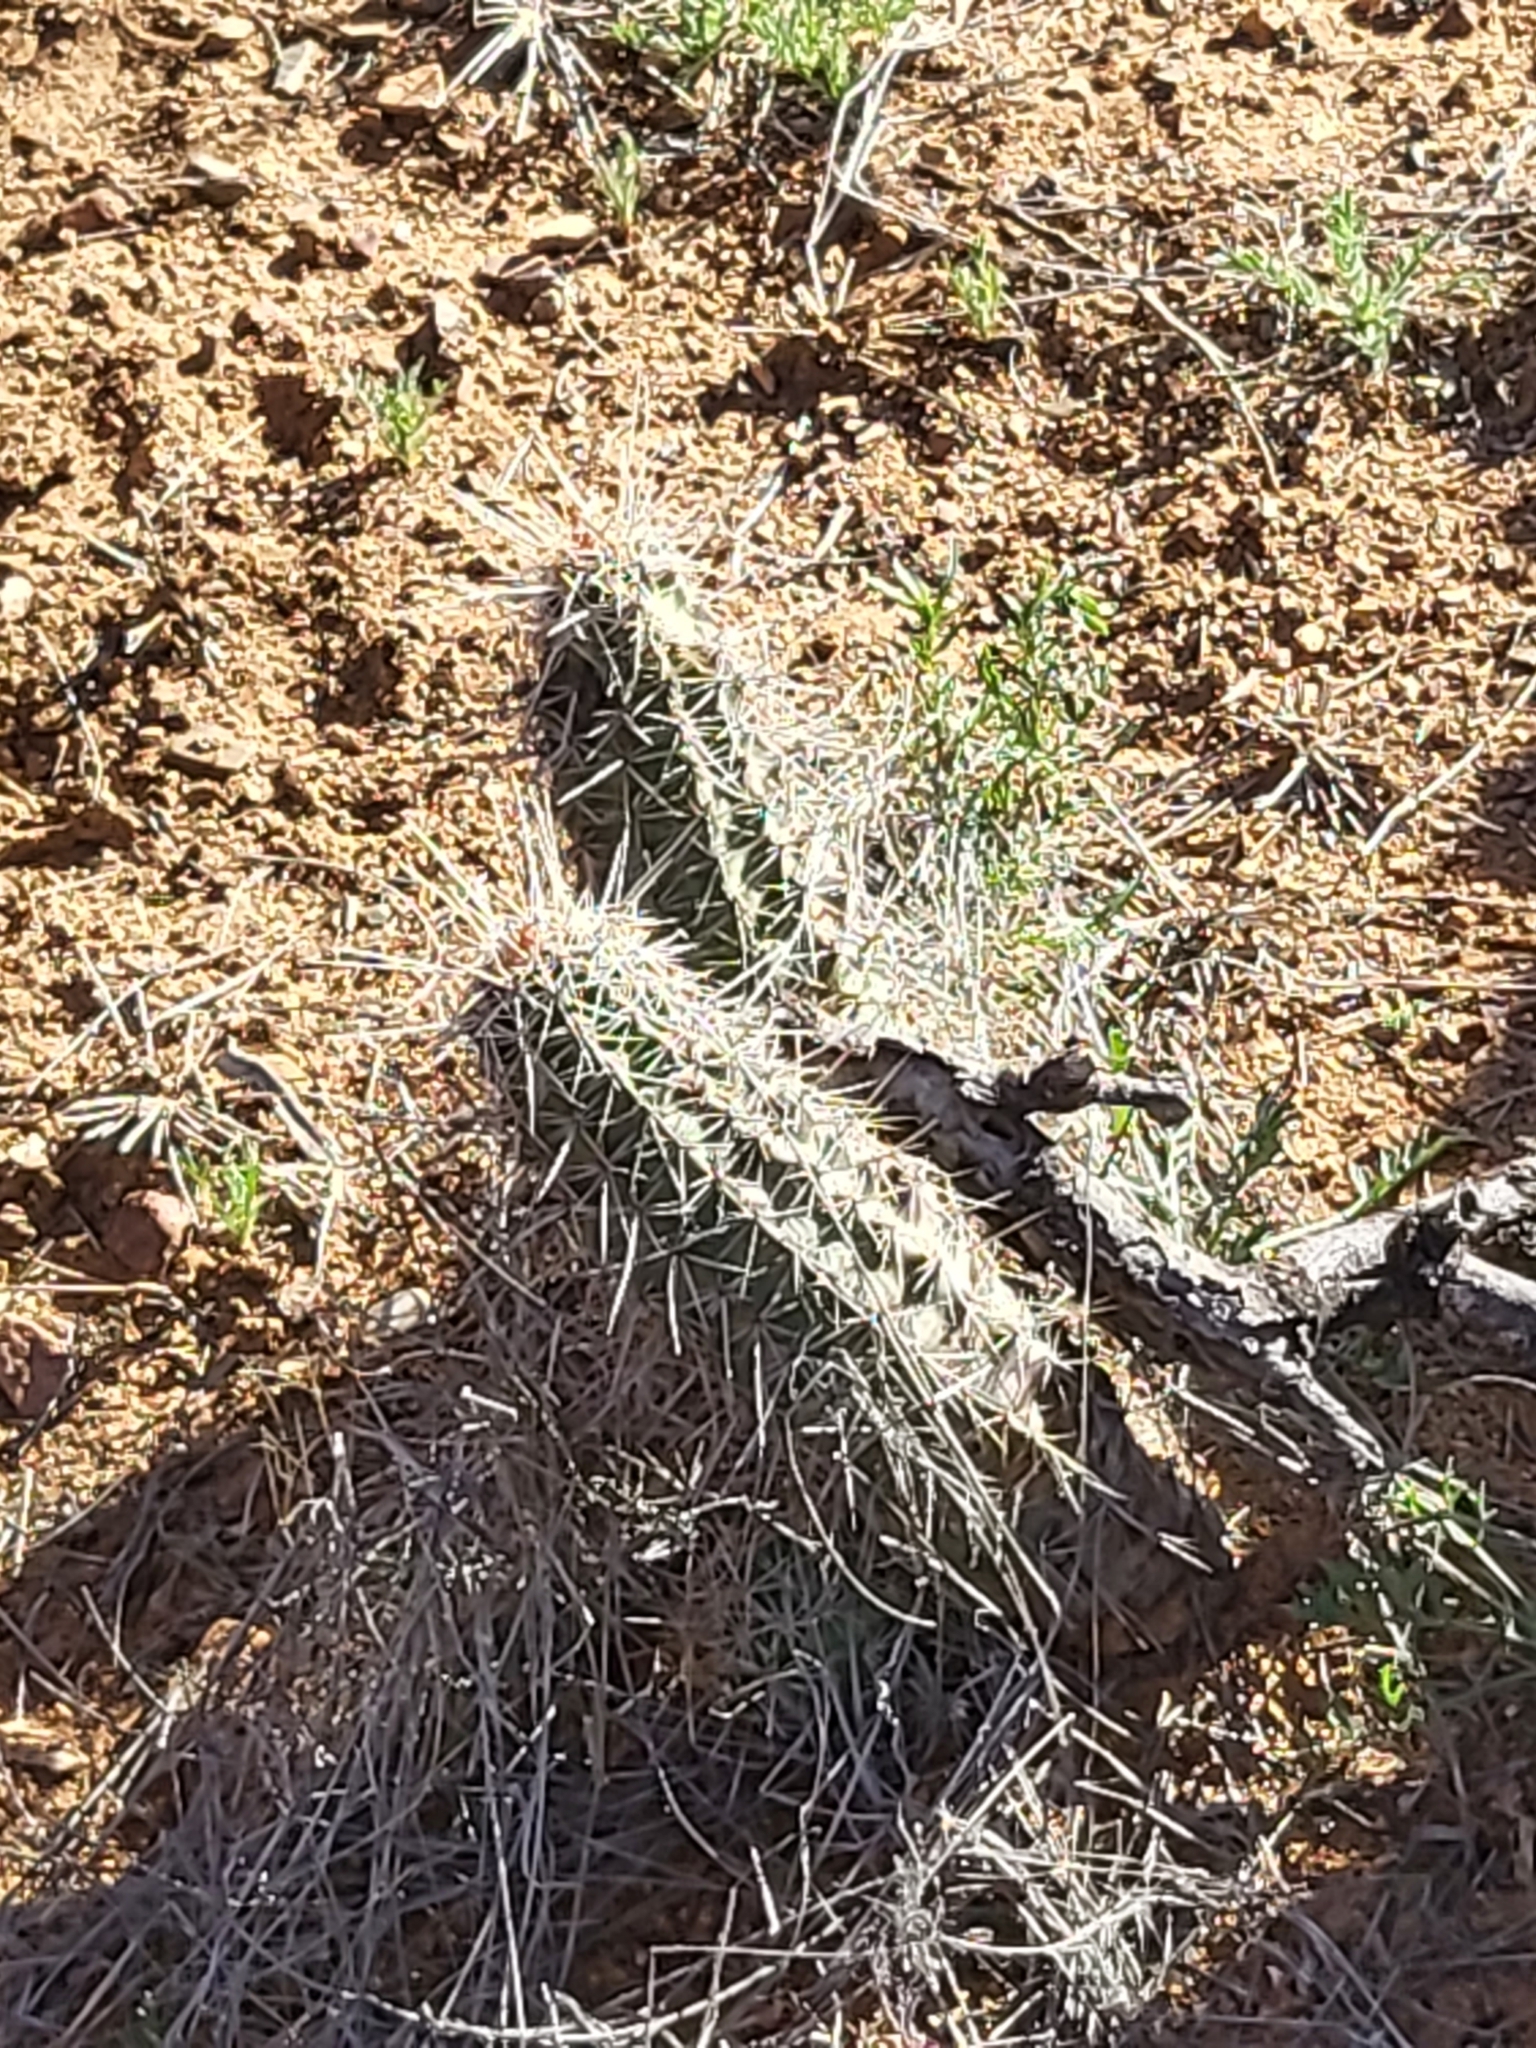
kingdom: Plantae
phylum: Tracheophyta
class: Magnoliopsida
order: Caryophyllales
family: Cactaceae
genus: Echinocereus
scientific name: Echinocereus fasciculatus
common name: Bundle hedgehog
